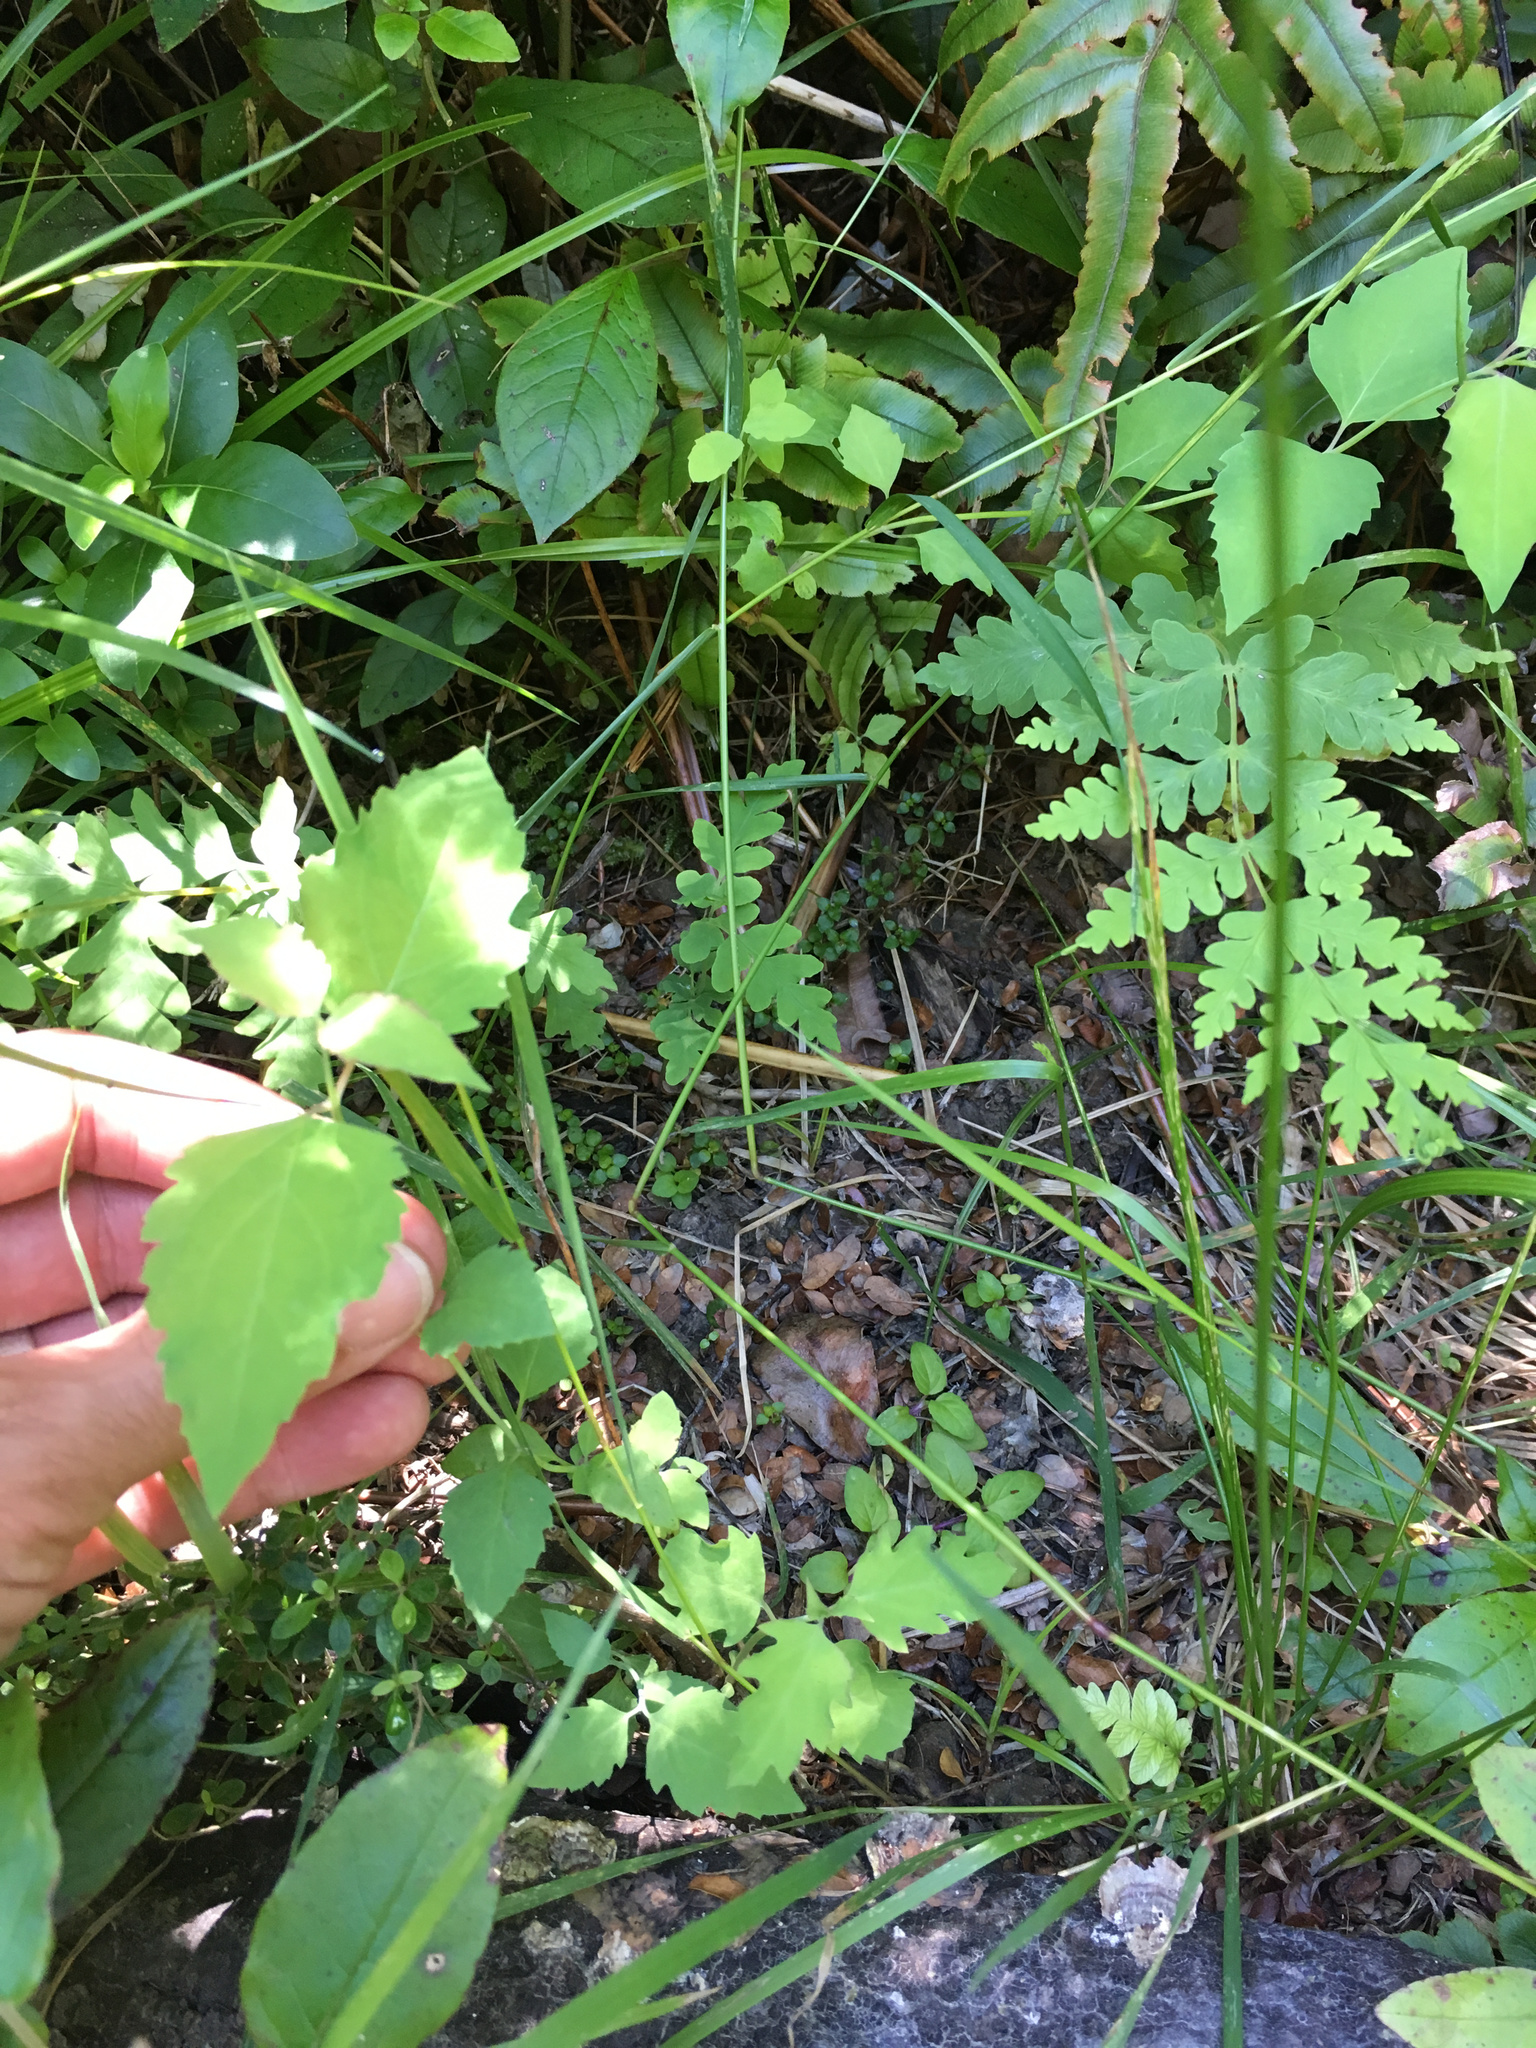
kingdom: Plantae
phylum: Tracheophyta
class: Magnoliopsida
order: Dipsacales
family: Caprifoliaceae
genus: Leycesteria
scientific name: Leycesteria formosa
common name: Himalayan honeysuckle
